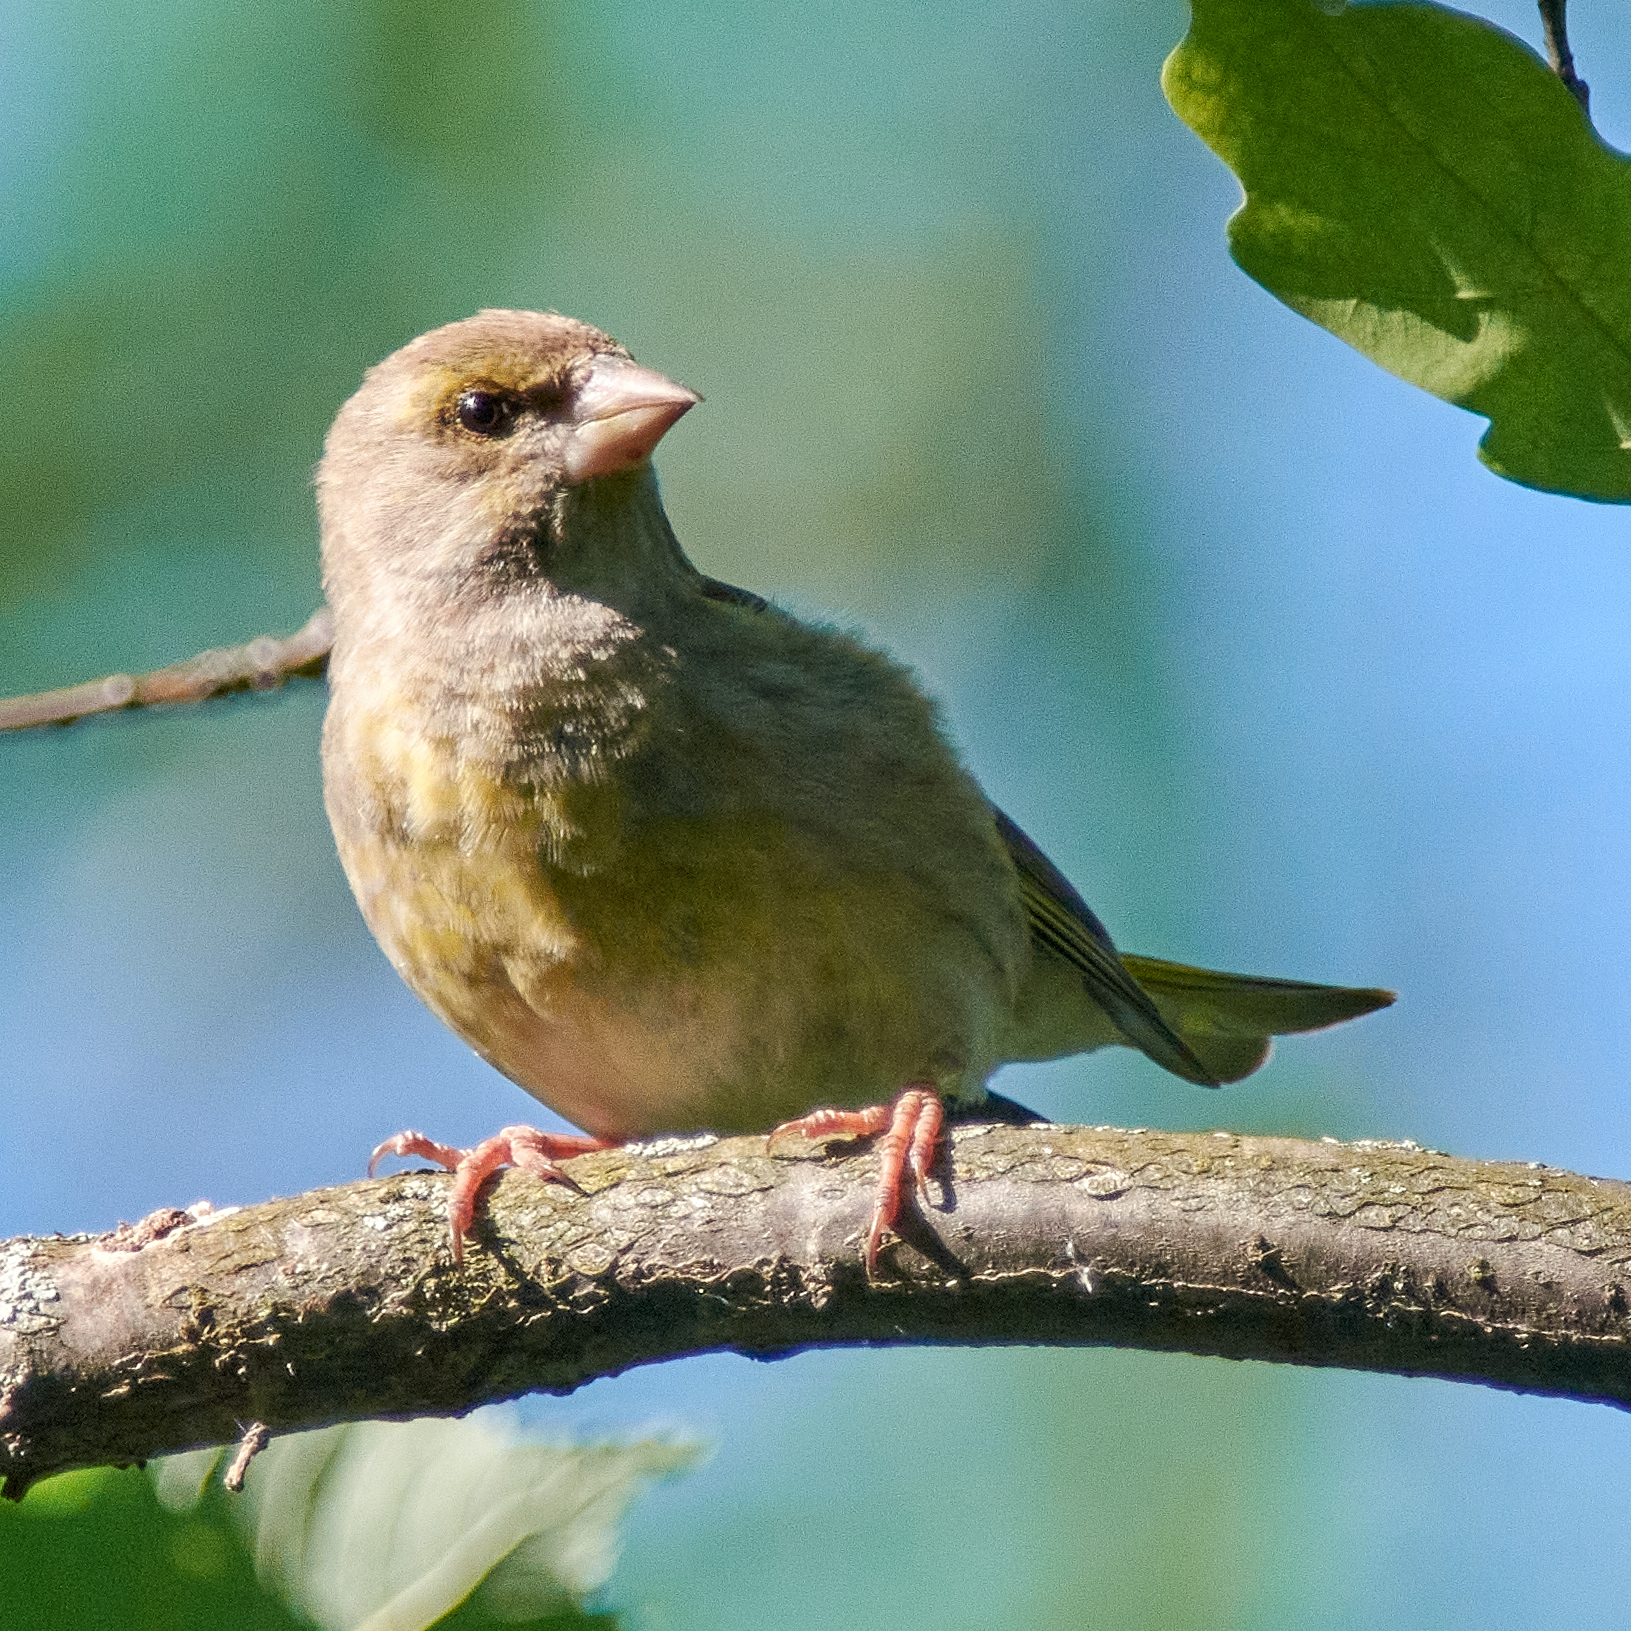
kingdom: Plantae
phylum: Tracheophyta
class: Liliopsida
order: Poales
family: Poaceae
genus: Chloris
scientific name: Chloris chloris
